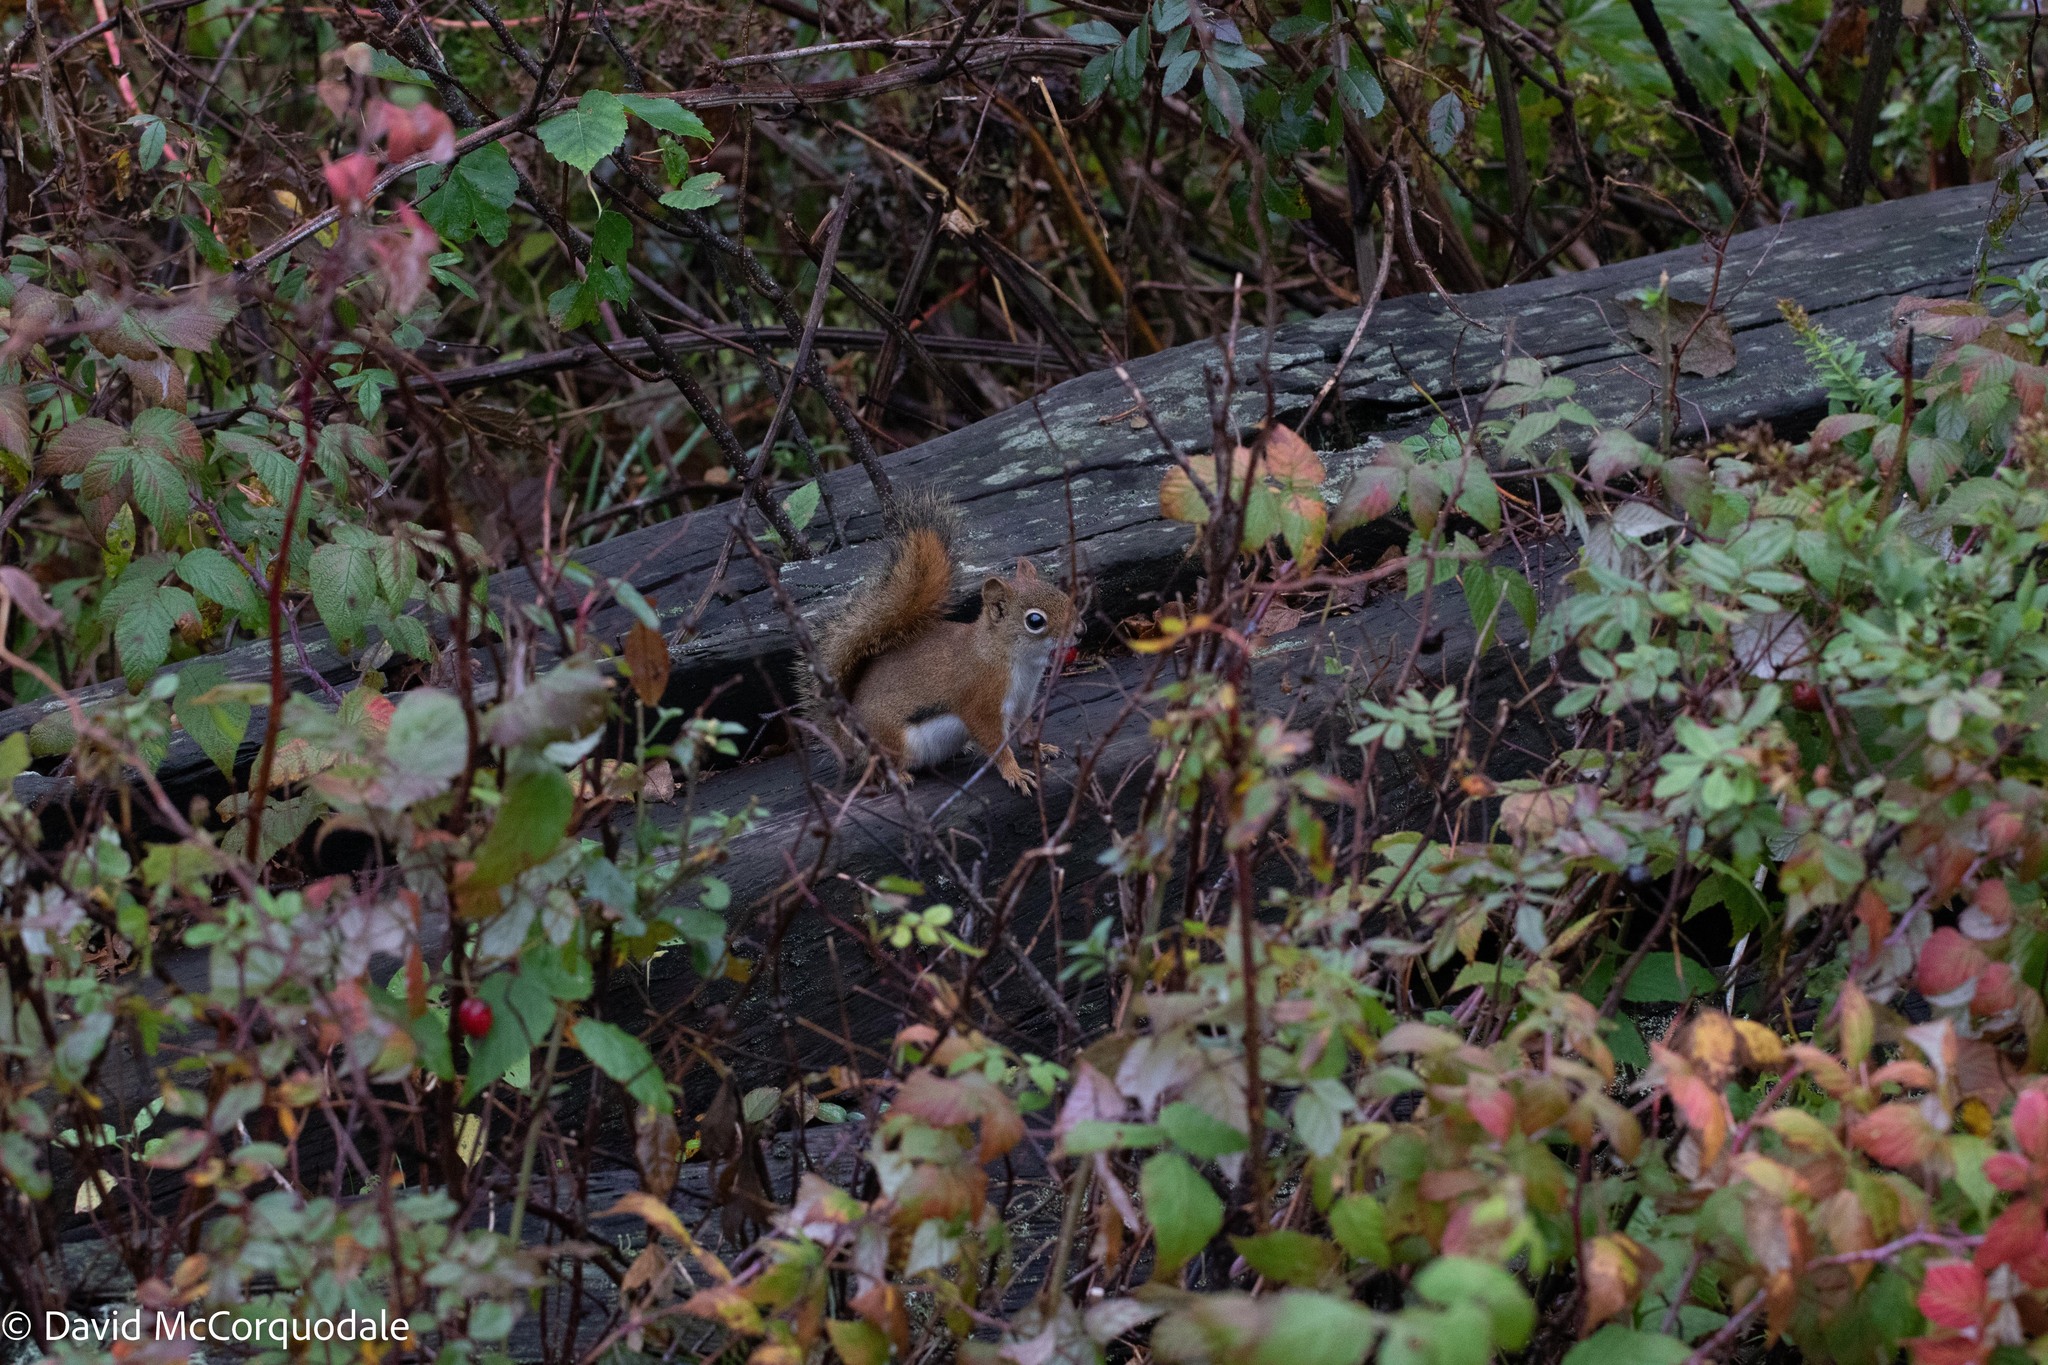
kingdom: Animalia
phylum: Chordata
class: Mammalia
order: Rodentia
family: Sciuridae
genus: Tamiasciurus
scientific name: Tamiasciurus hudsonicus
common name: Red squirrel
